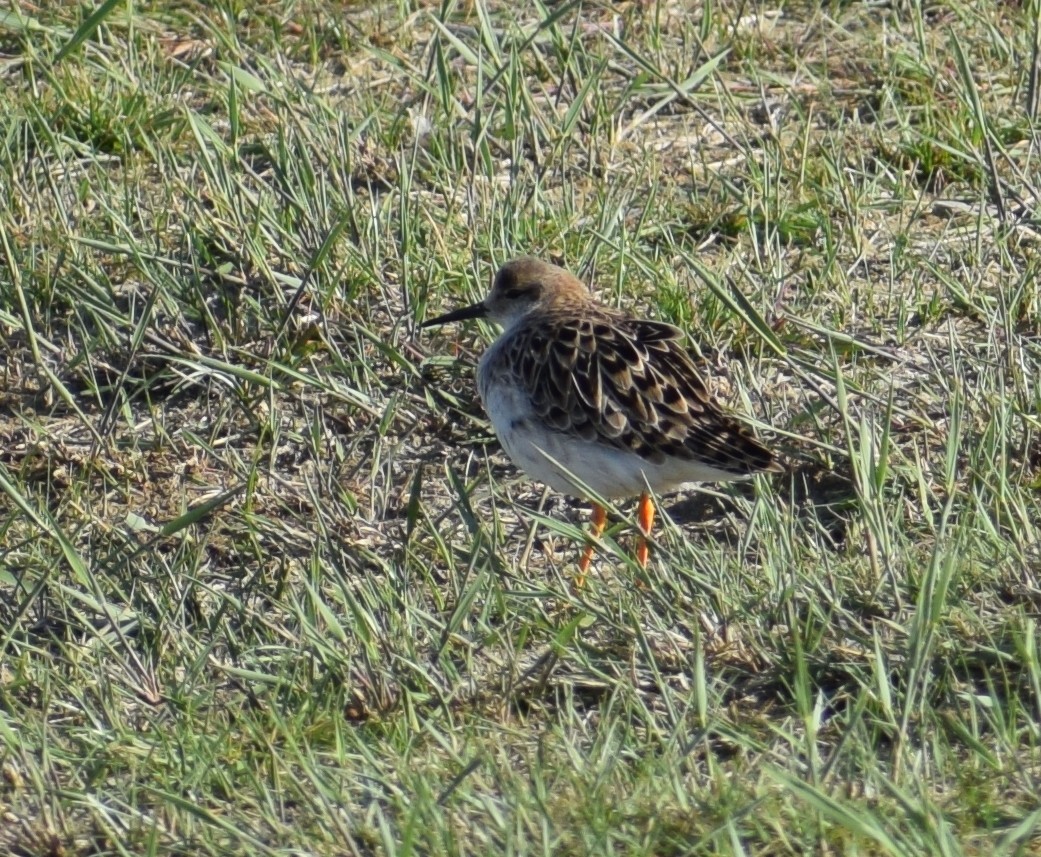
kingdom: Animalia
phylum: Chordata
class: Aves
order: Charadriiformes
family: Scolopacidae
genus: Calidris
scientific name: Calidris pugnax
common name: Ruff
